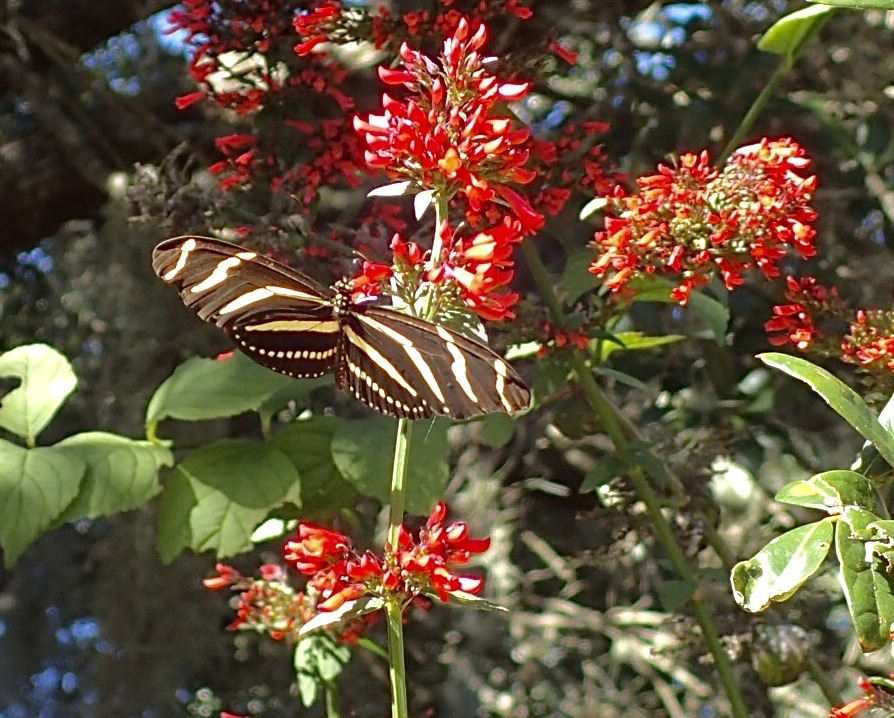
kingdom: Animalia
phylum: Arthropoda
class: Insecta
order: Lepidoptera
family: Nymphalidae
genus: Heliconius
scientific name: Heliconius charithonia
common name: Zebra long wing
